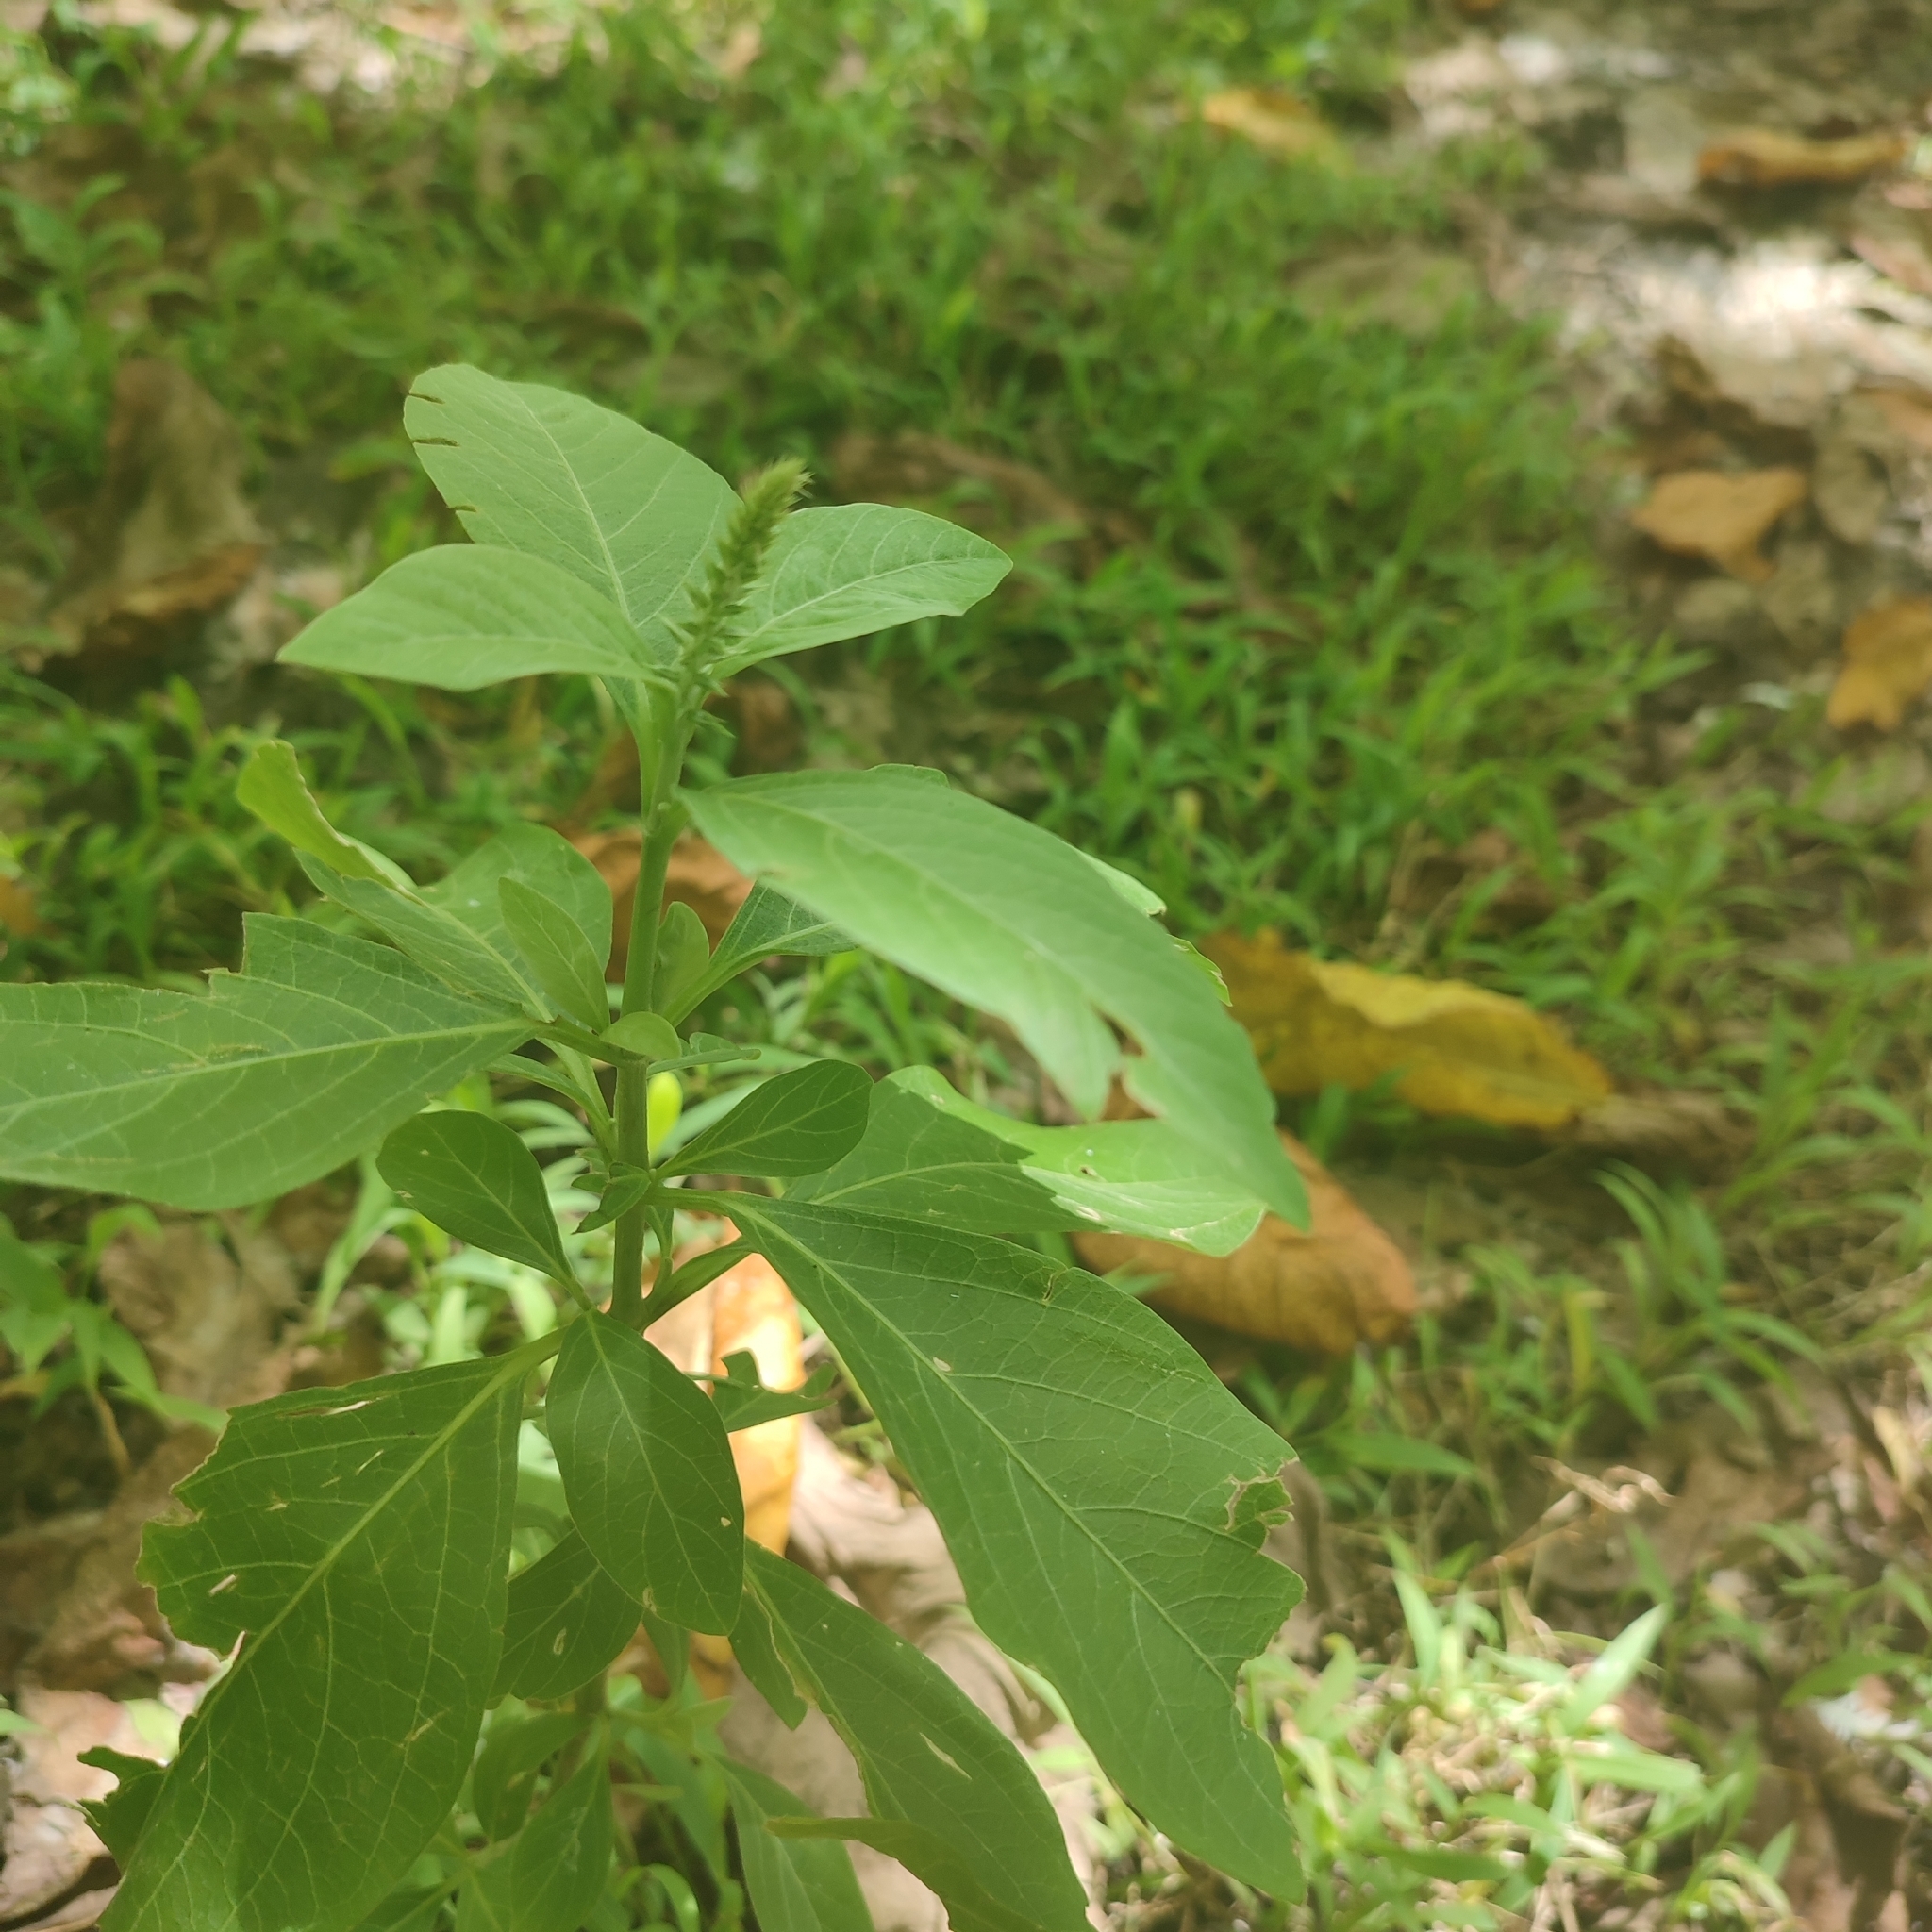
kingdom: Plantae
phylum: Tracheophyta
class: Magnoliopsida
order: Caryophyllales
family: Amaranthaceae
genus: Achyranthes
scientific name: Achyranthes aspera
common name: Devil's horsewhip
